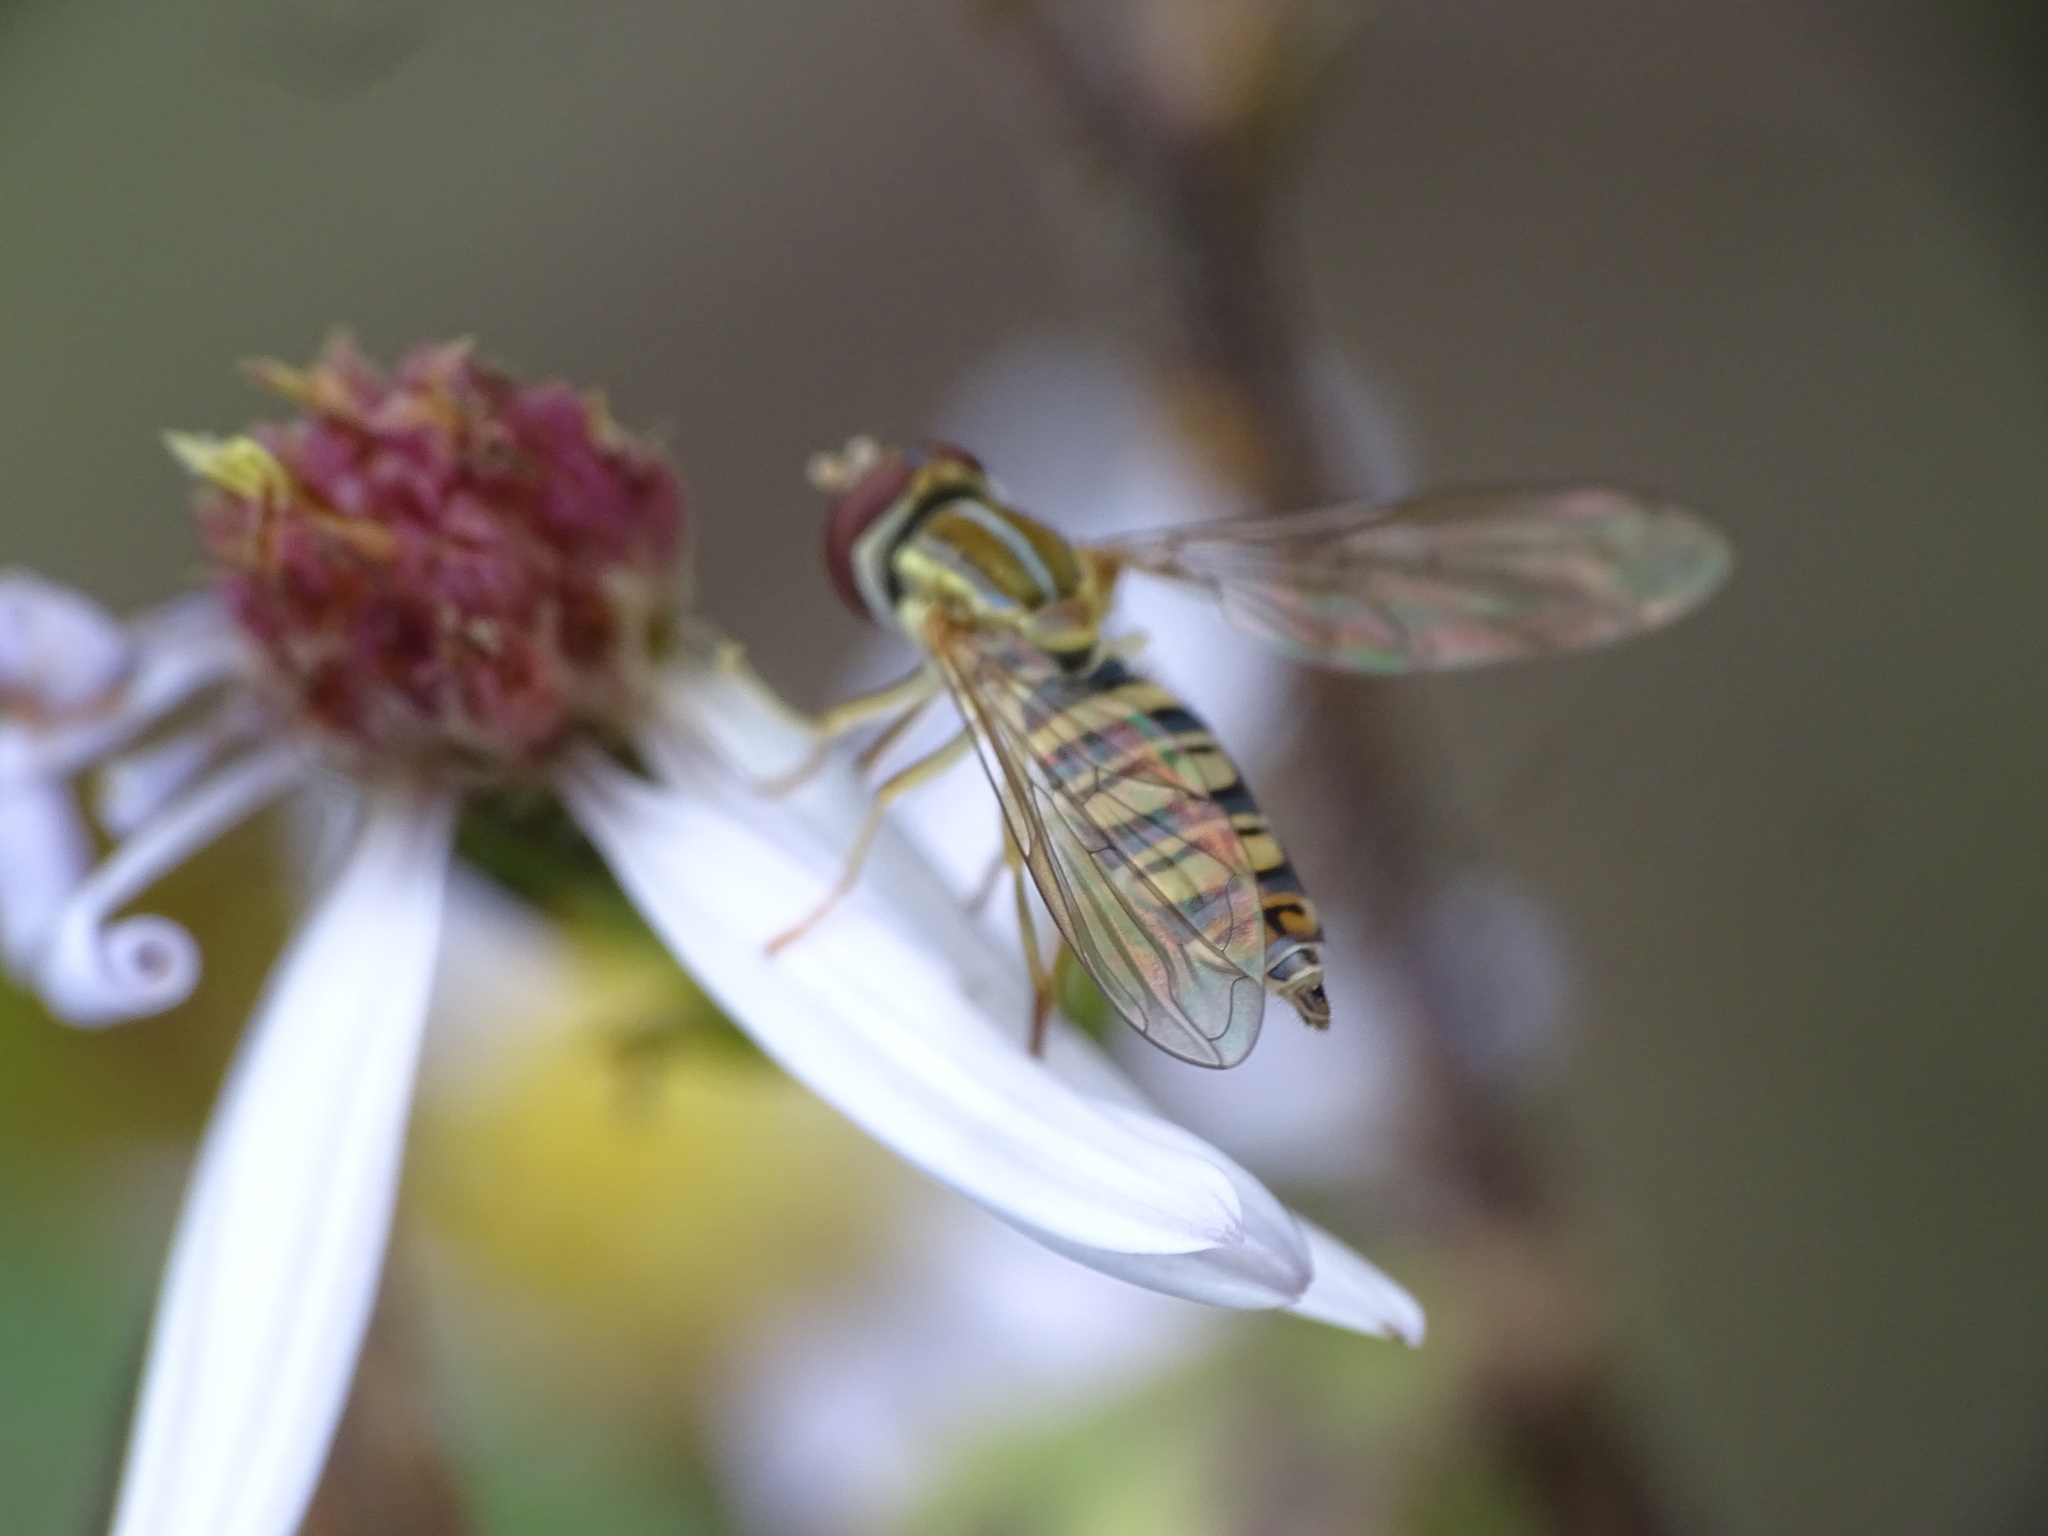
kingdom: Animalia
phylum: Arthropoda
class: Insecta
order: Diptera
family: Syrphidae
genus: Toxomerus
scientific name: Toxomerus politus
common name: Maize calligrapher
